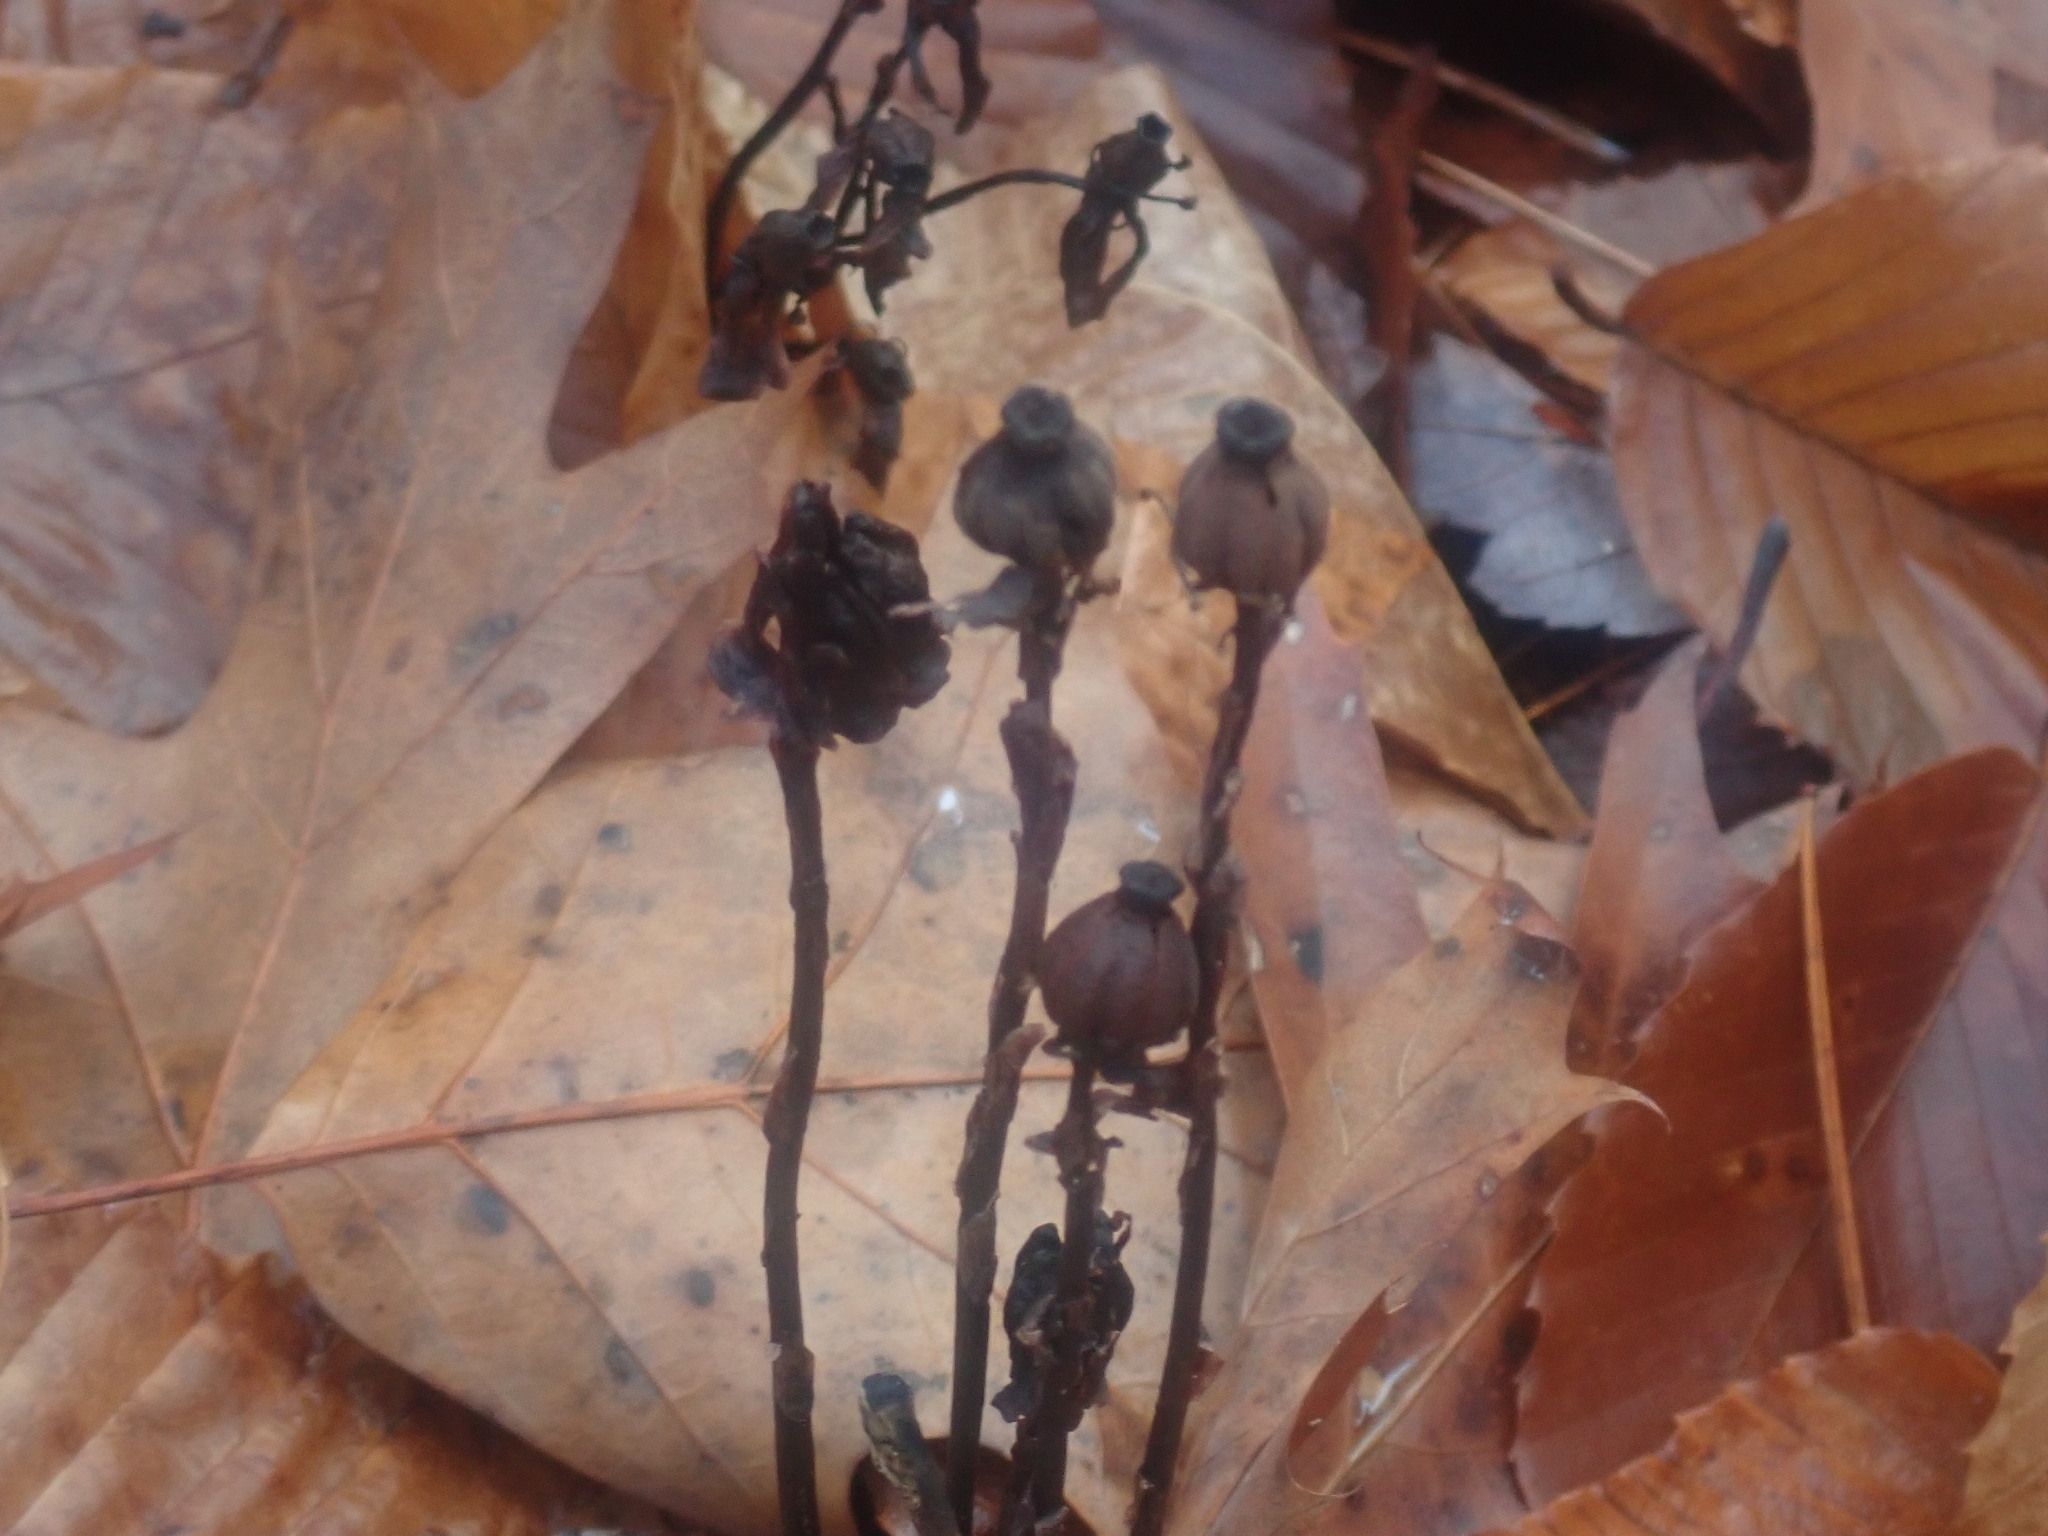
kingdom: Plantae
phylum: Tracheophyta
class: Magnoliopsida
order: Ericales
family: Ericaceae
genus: Monotropa
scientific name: Monotropa uniflora
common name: Convulsion root
